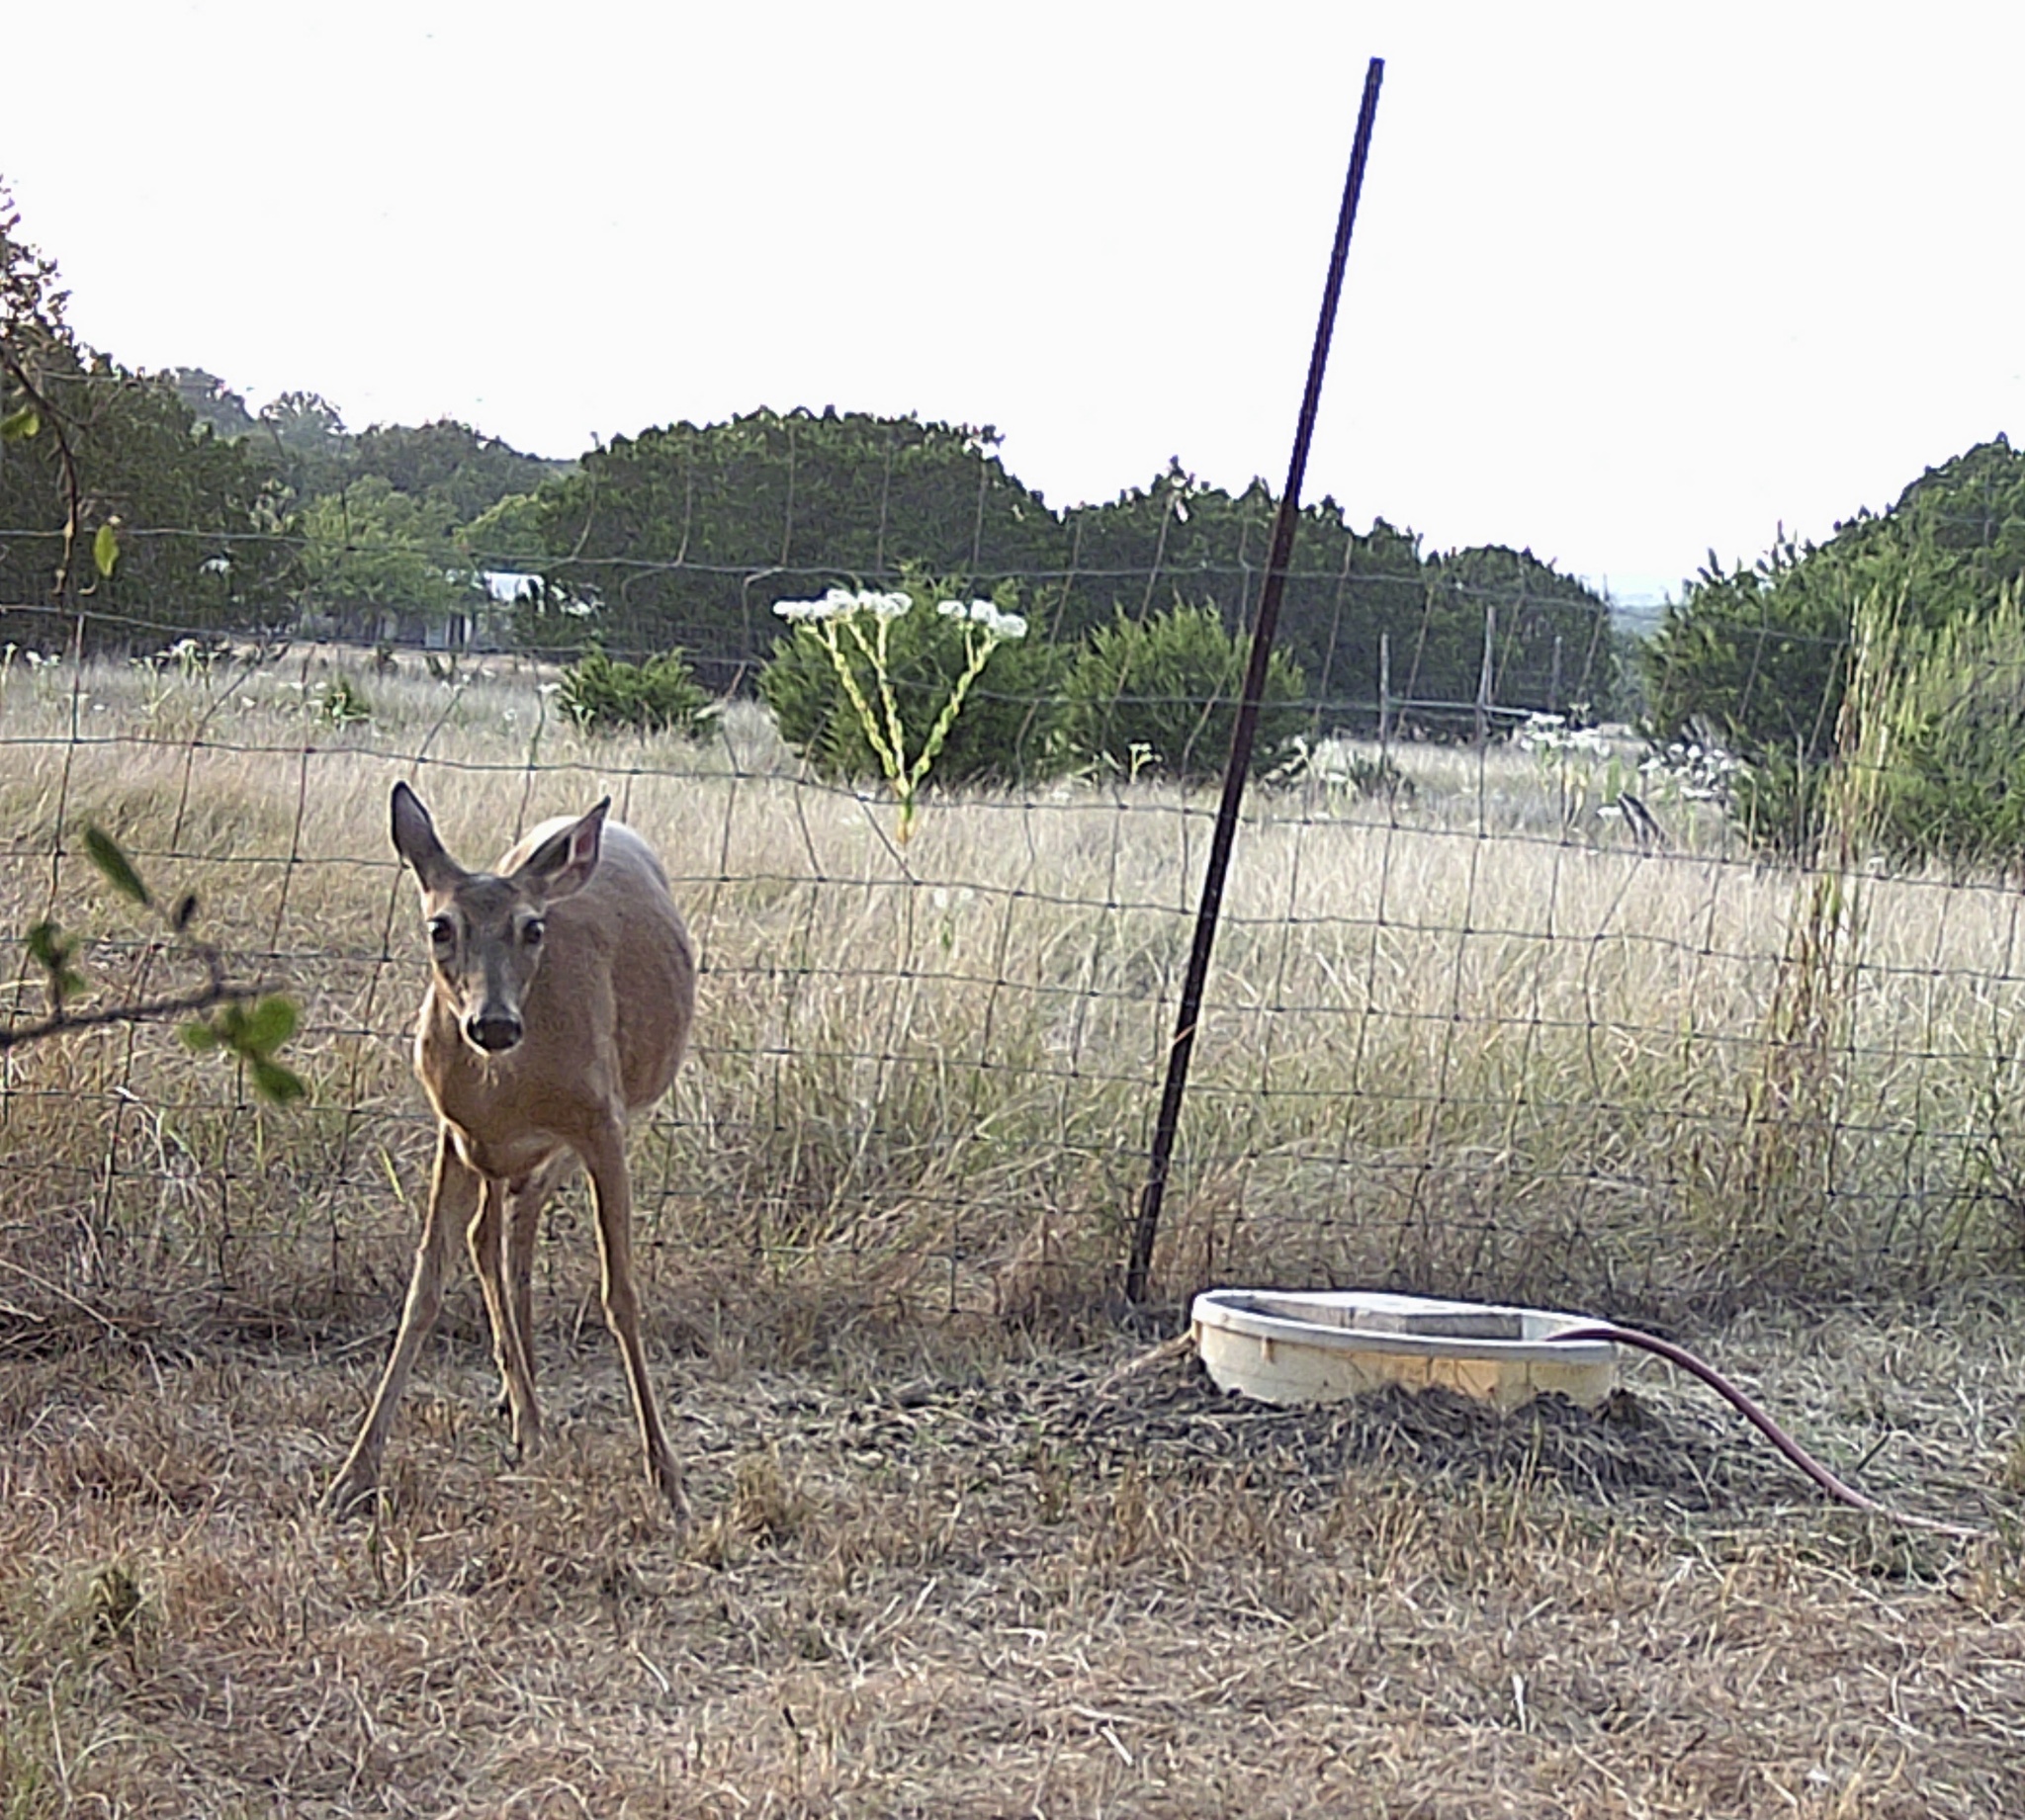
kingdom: Animalia
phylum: Chordata
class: Mammalia
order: Artiodactyla
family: Cervidae
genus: Odocoileus
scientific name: Odocoileus virginianus
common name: White-tailed deer
